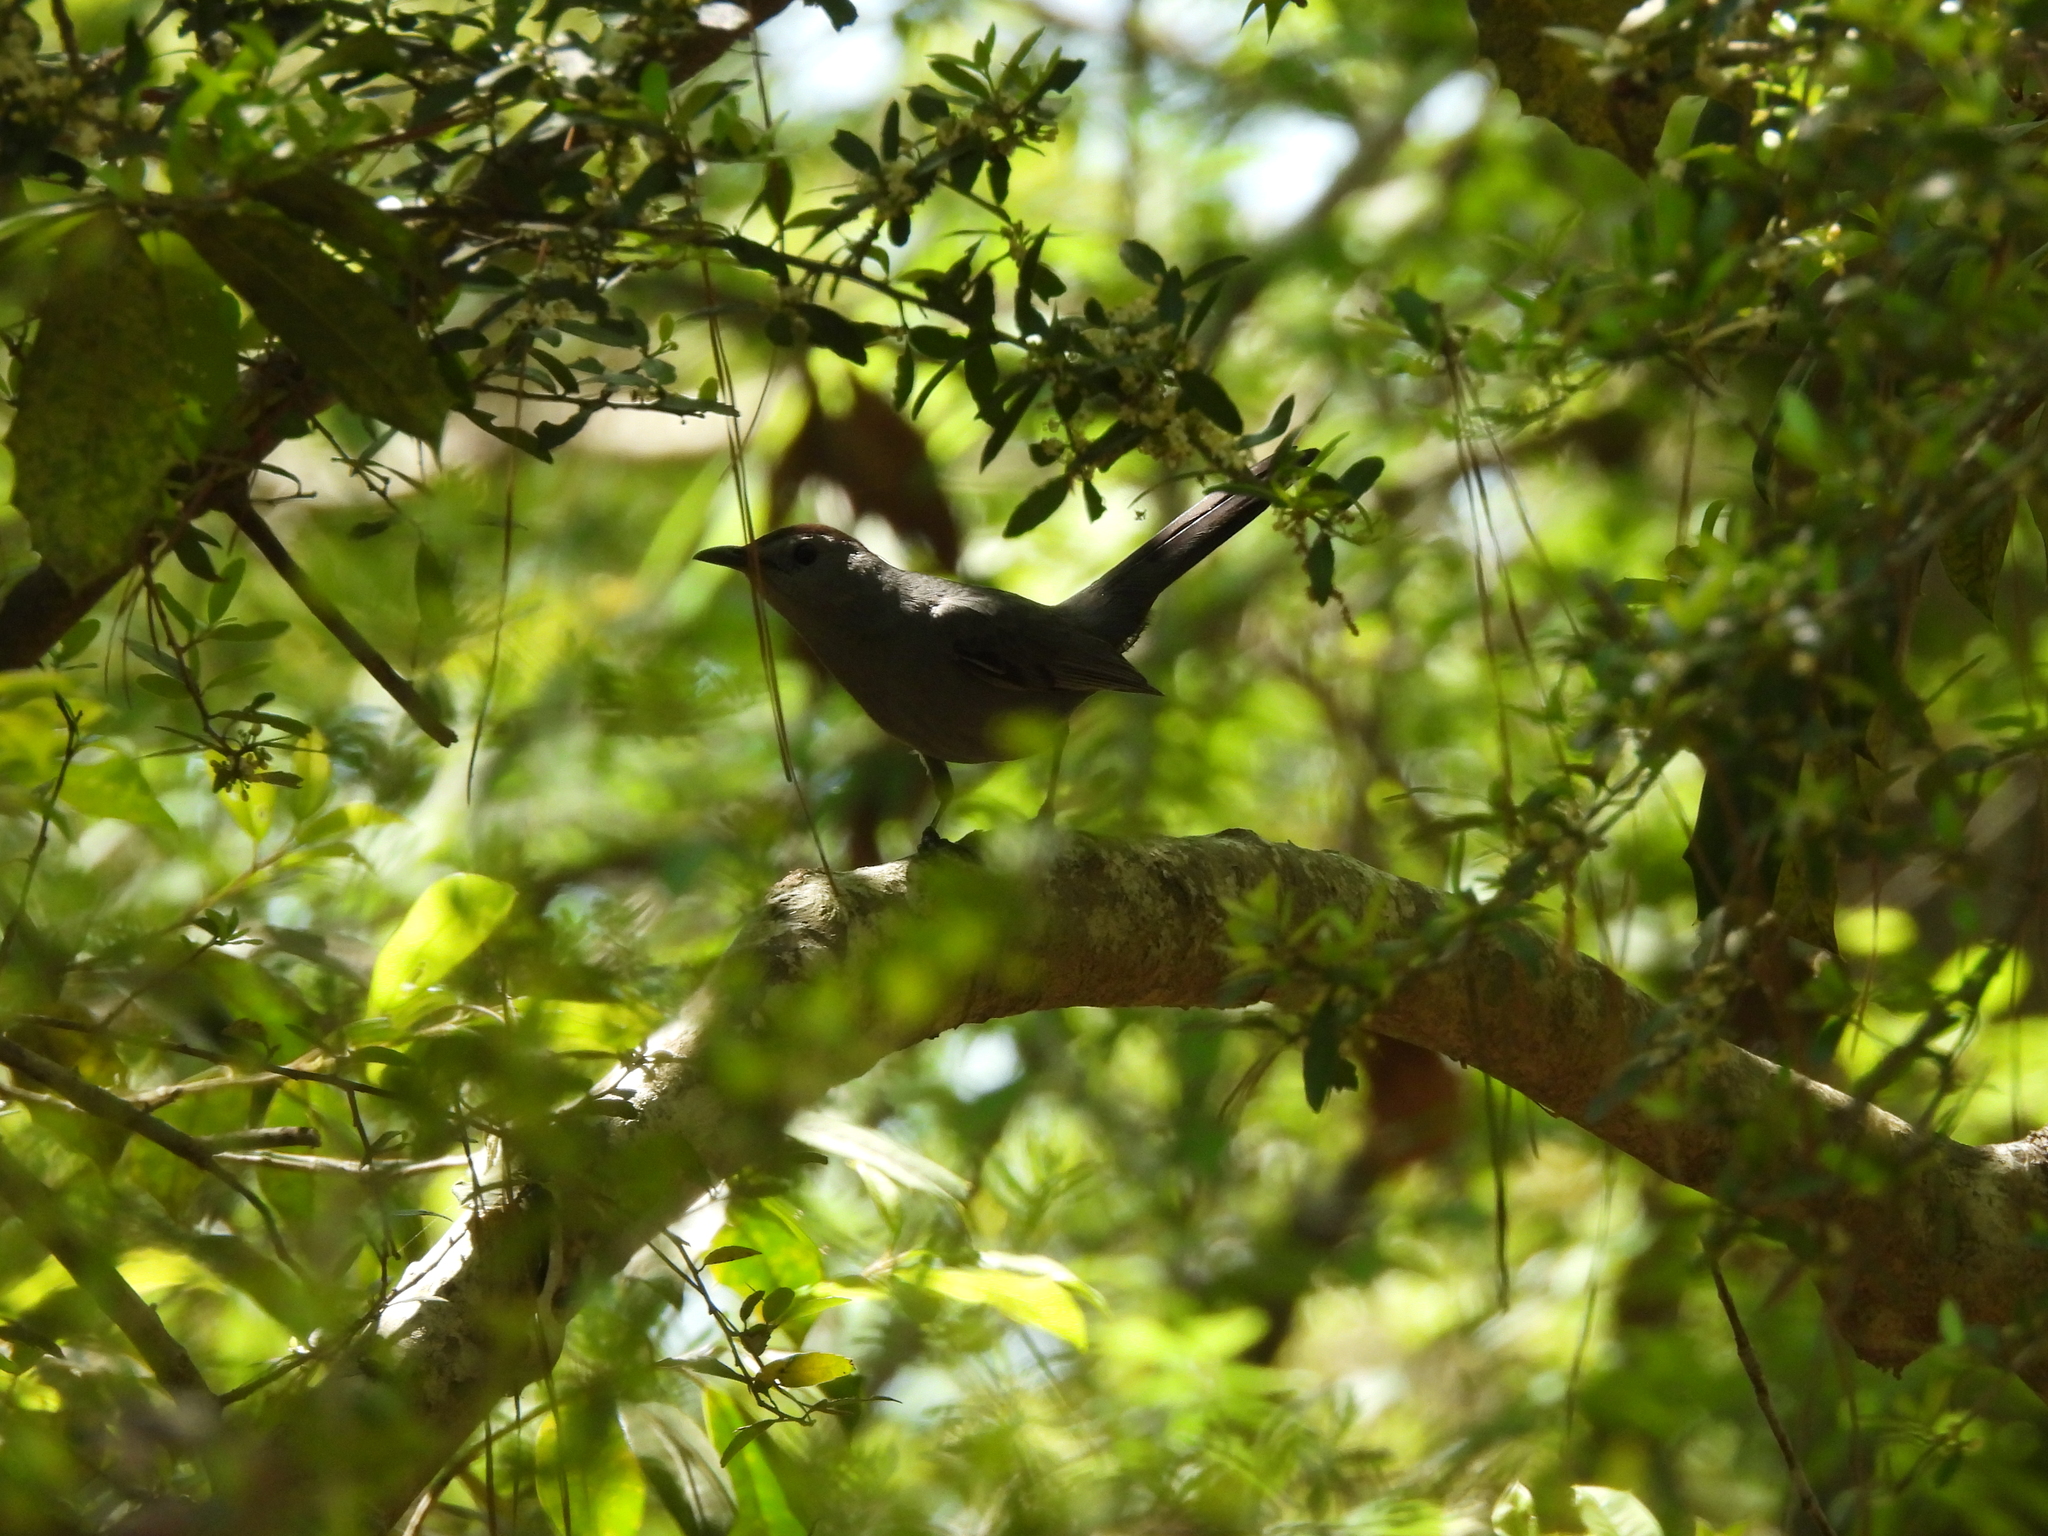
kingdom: Animalia
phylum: Chordata
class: Aves
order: Passeriformes
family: Mimidae
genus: Dumetella
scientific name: Dumetella carolinensis
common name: Gray catbird
